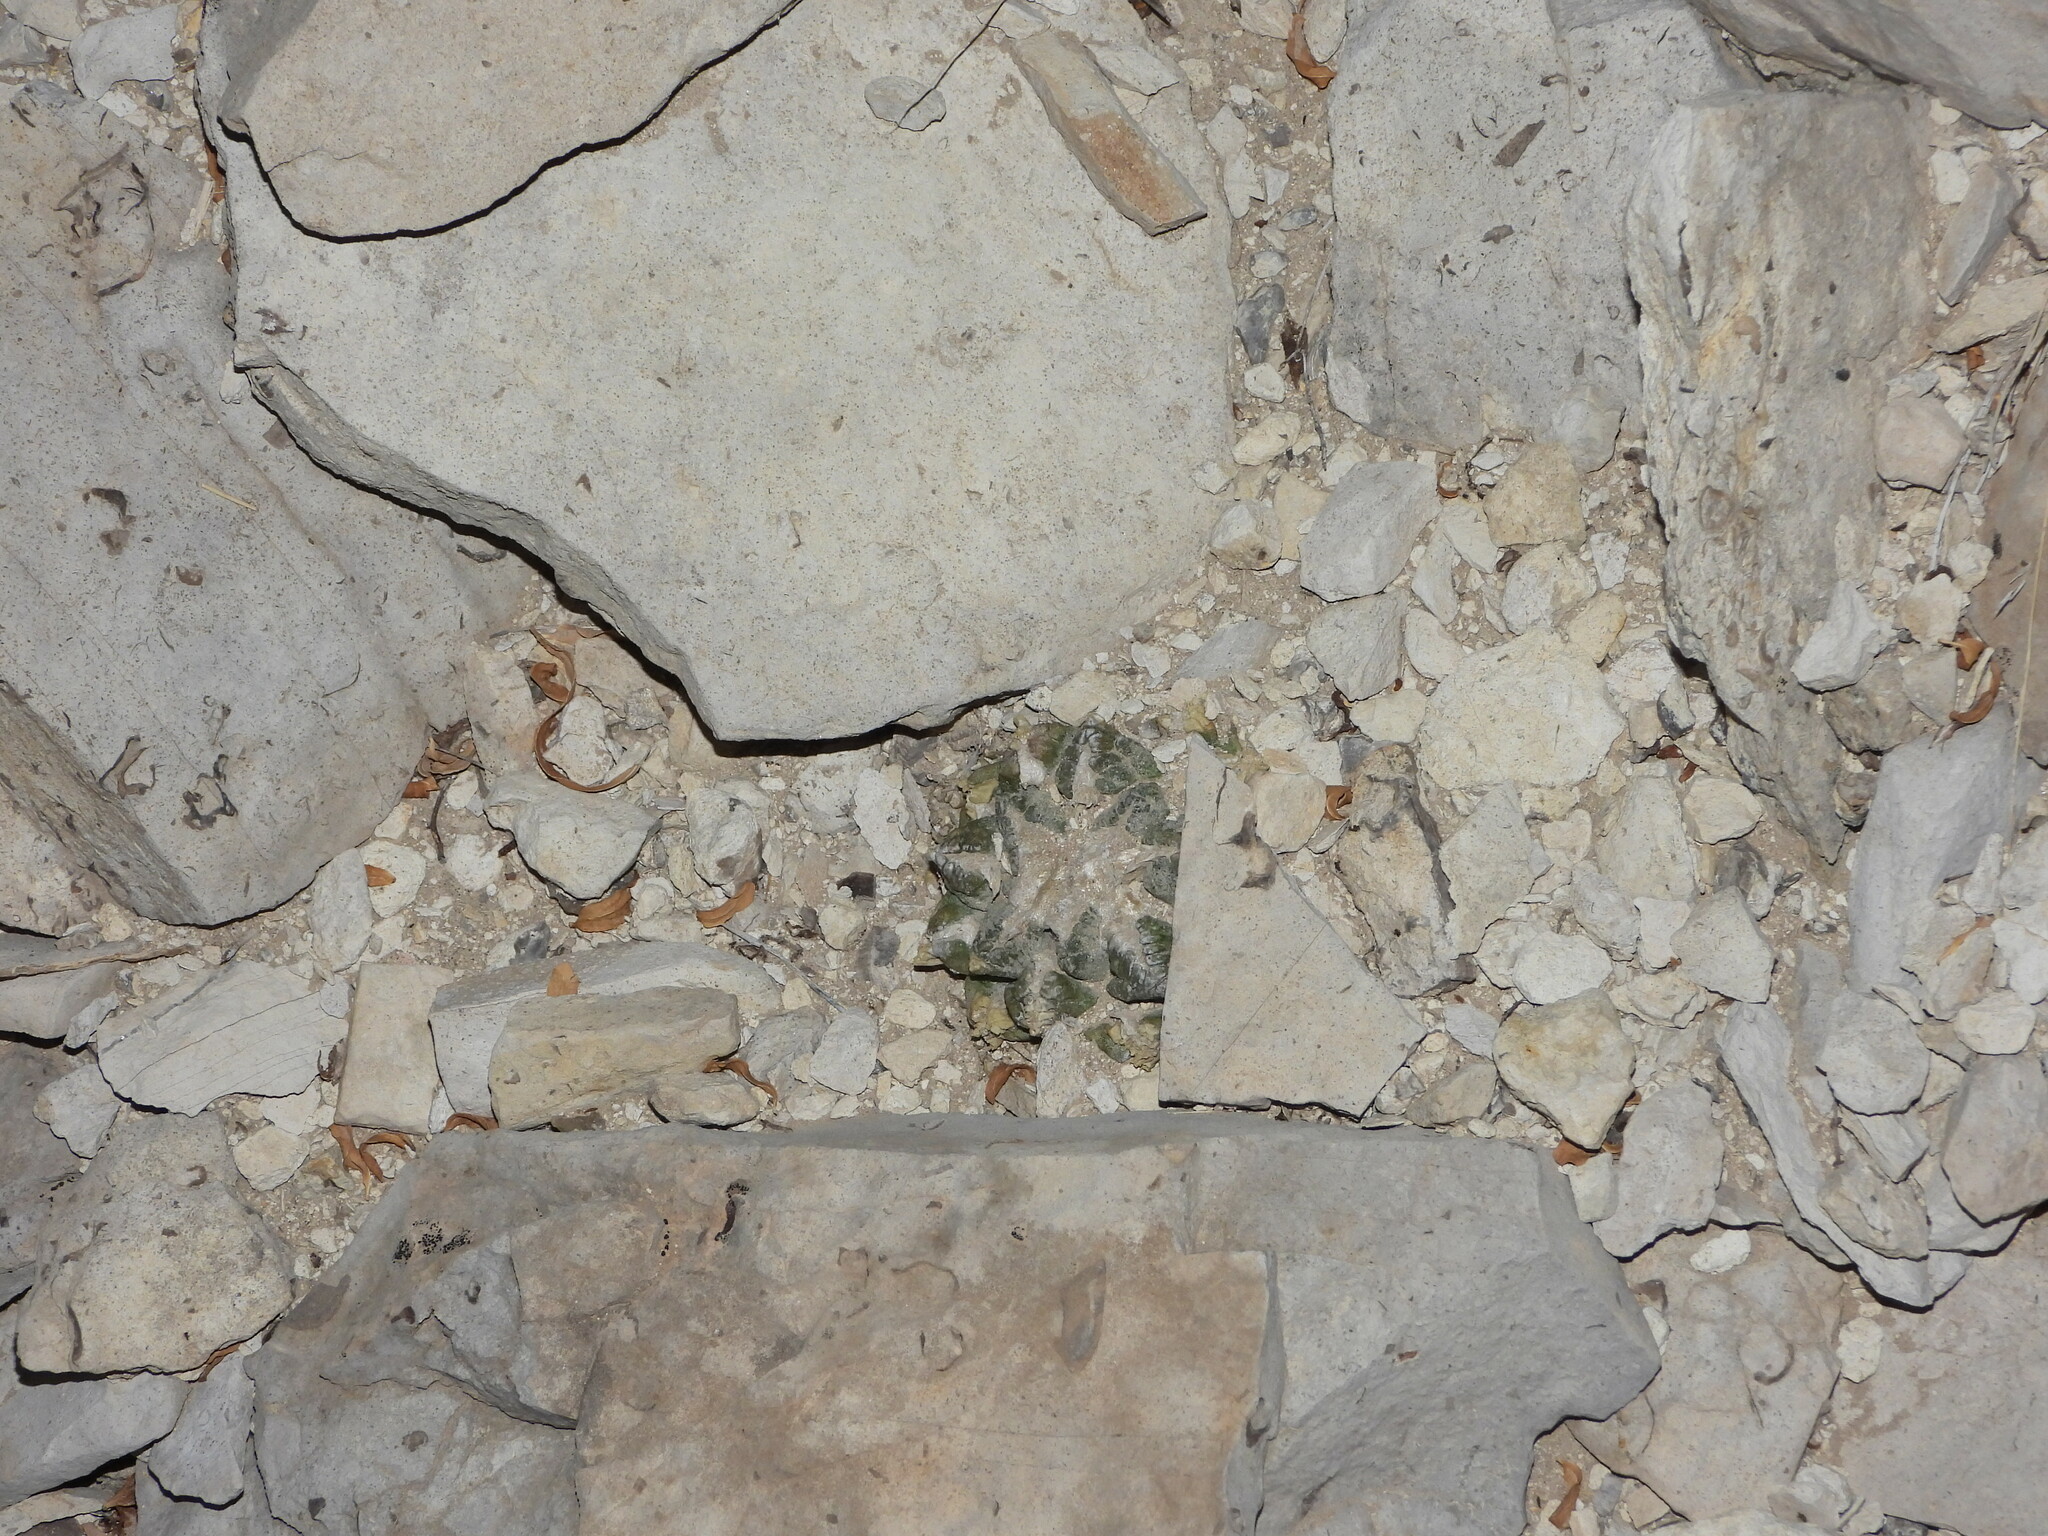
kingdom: Plantae
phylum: Tracheophyta
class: Magnoliopsida
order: Caryophyllales
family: Cactaceae
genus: Ariocarpus
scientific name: Ariocarpus fissuratus
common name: Chautle-living rock
